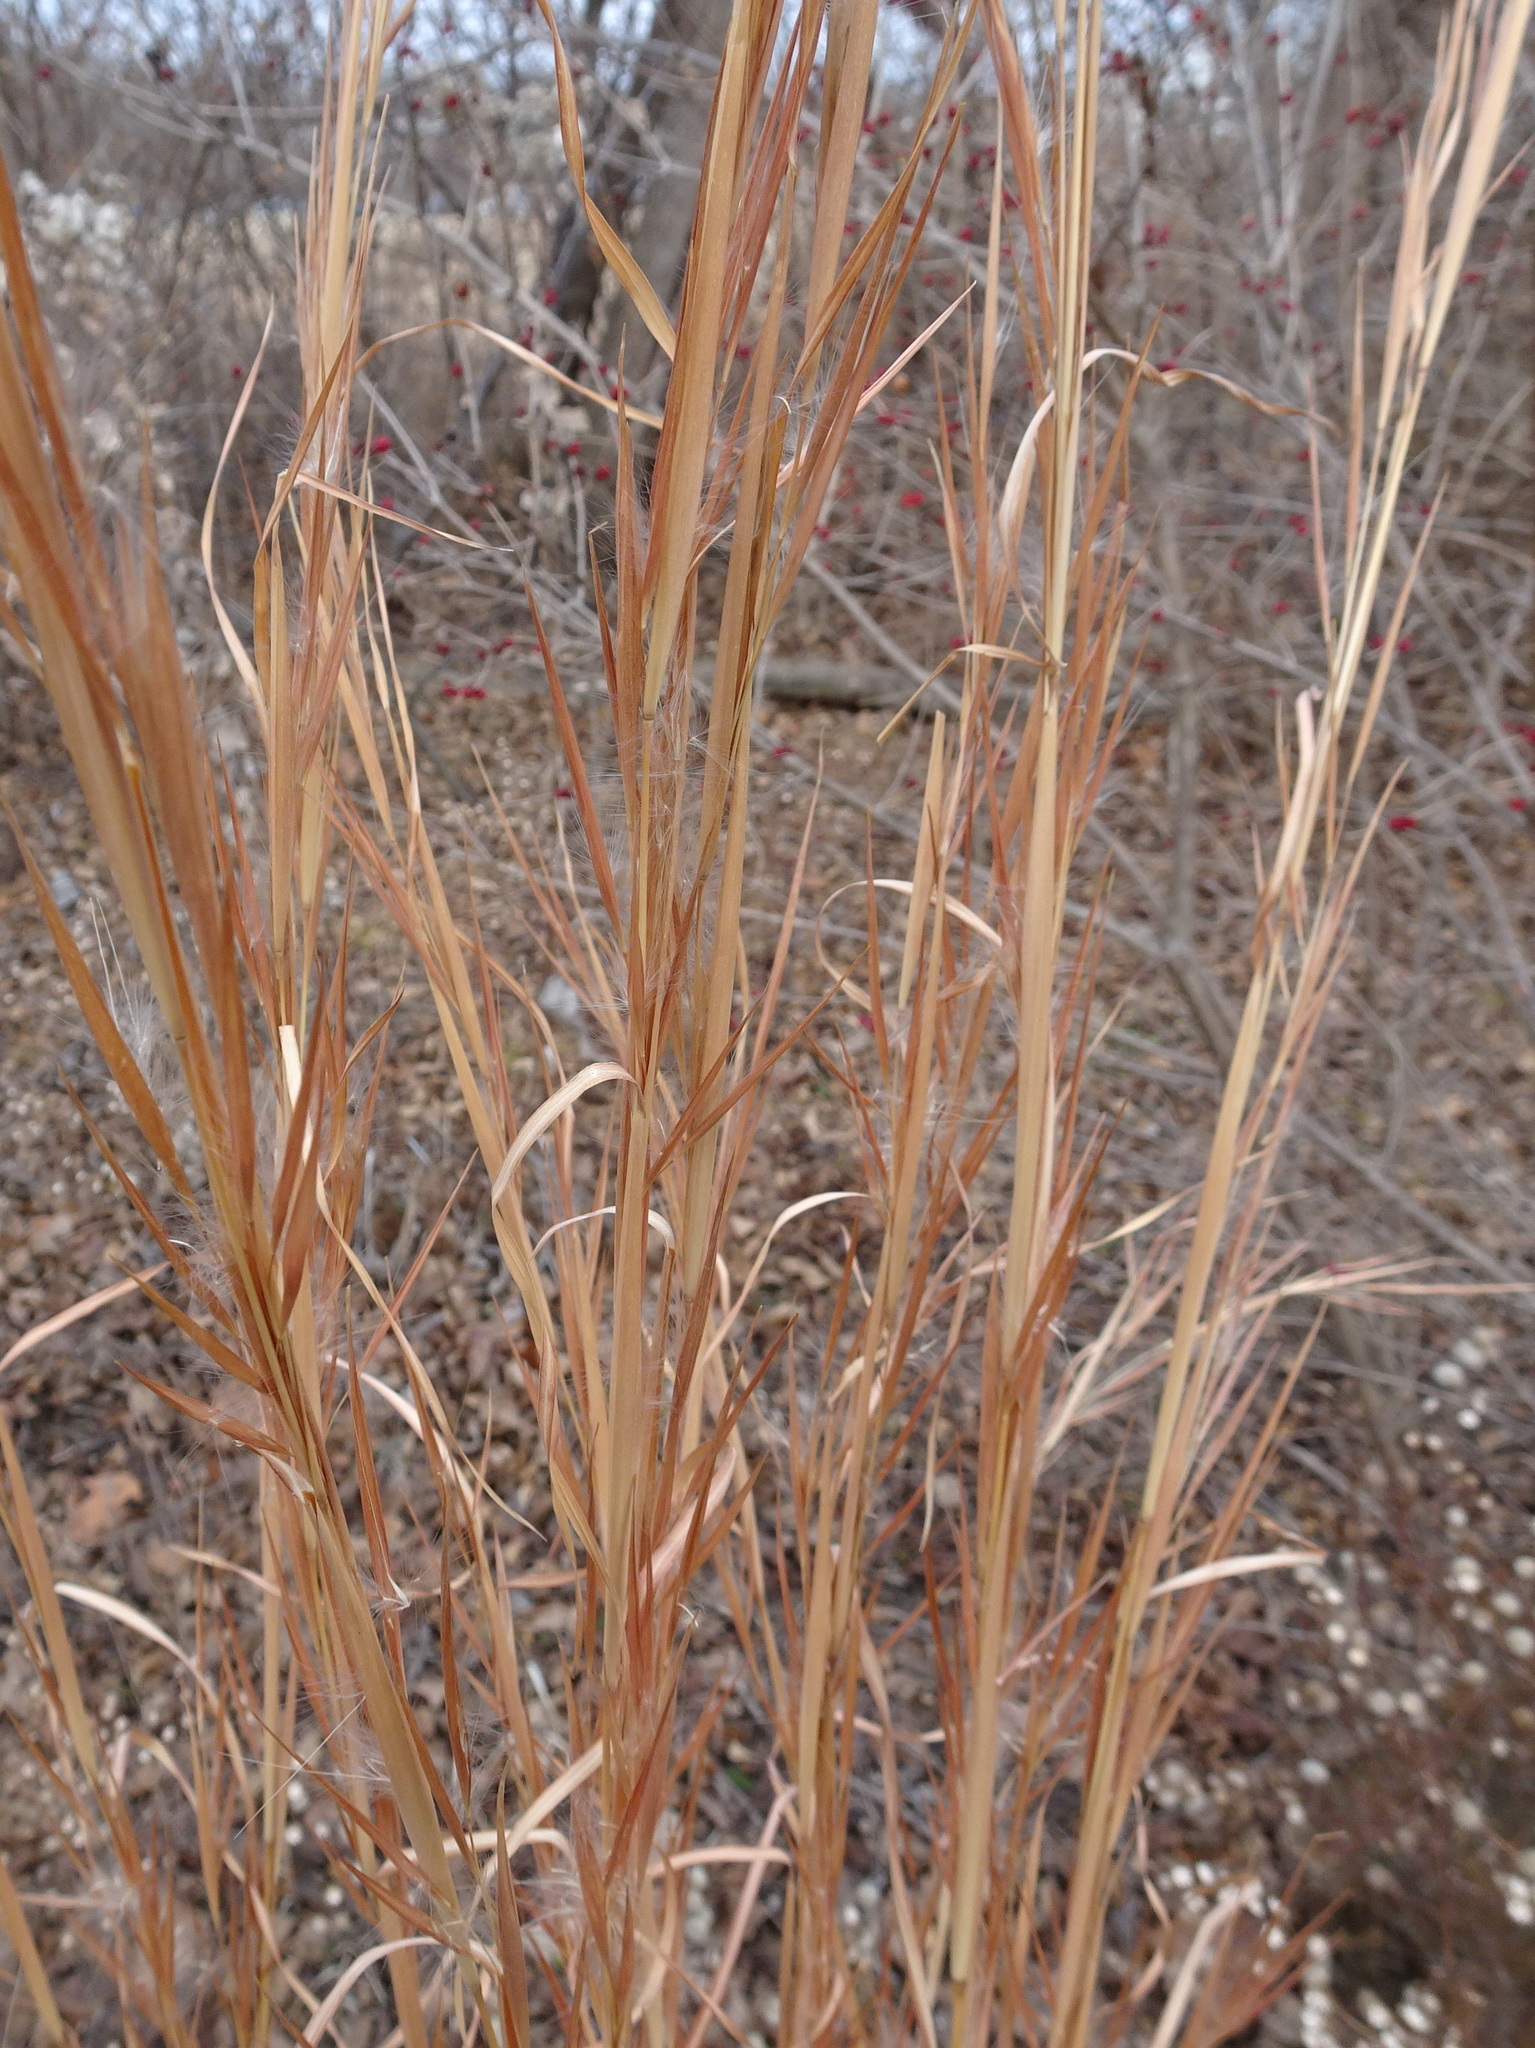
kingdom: Plantae
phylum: Tracheophyta
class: Liliopsida
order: Poales
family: Poaceae
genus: Andropogon
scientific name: Andropogon virginicus
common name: Broomsedge bluestem
